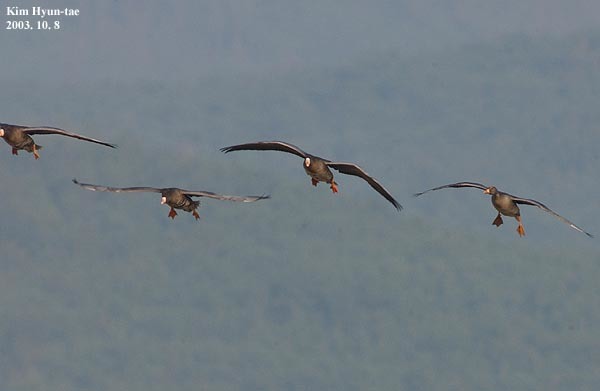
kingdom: Animalia
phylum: Chordata
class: Aves
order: Anseriformes
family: Anatidae
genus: Anser
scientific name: Anser albifrons
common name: Greater white-fronted goose
